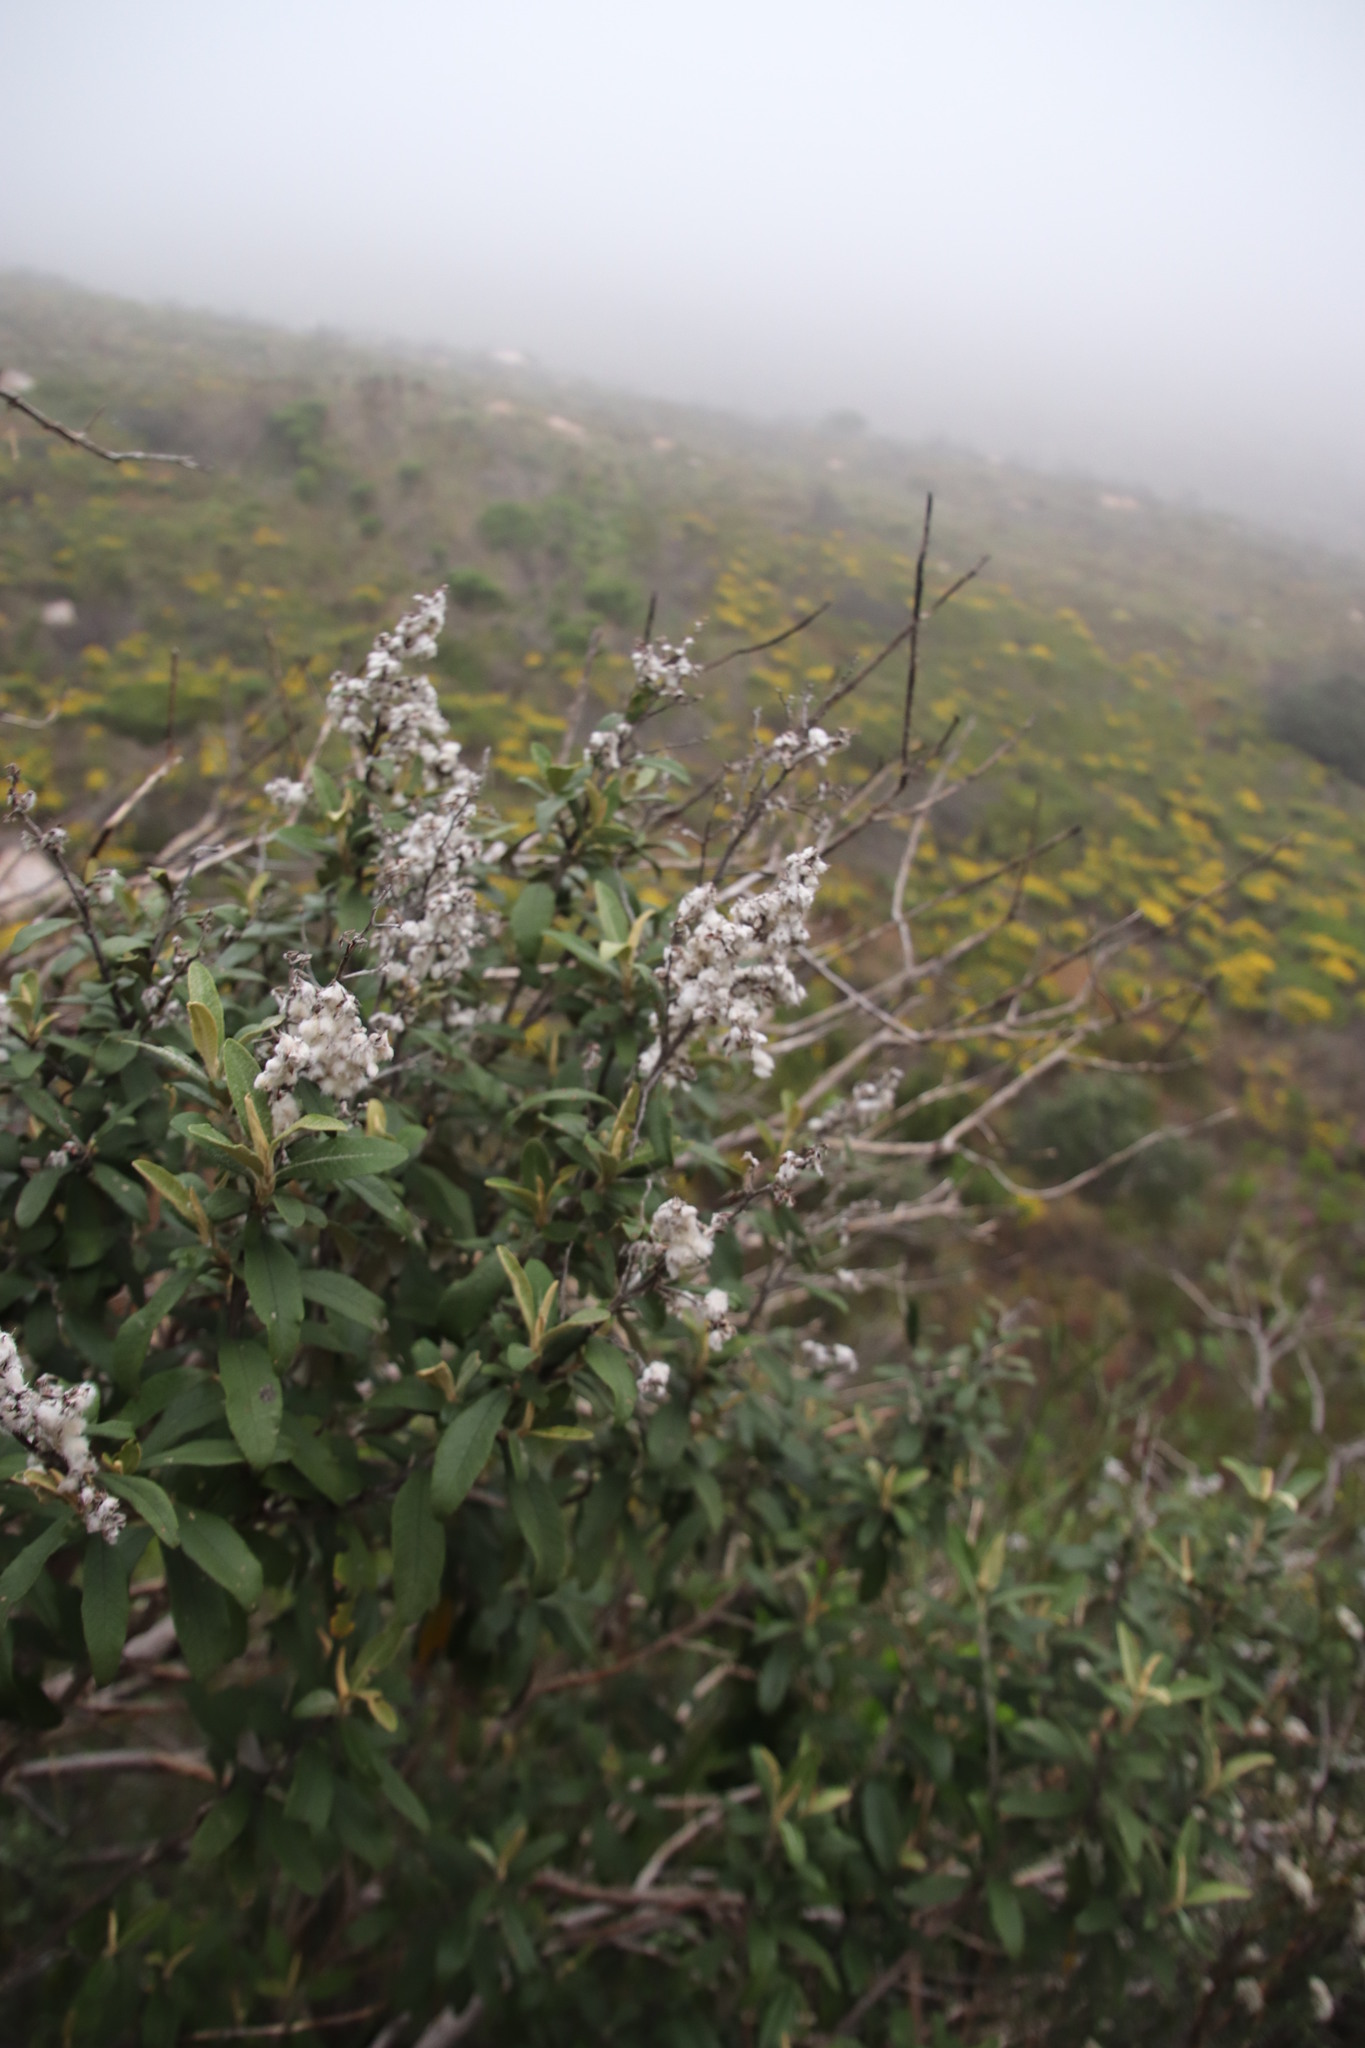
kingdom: Plantae
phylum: Tracheophyta
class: Magnoliopsida
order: Asterales
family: Asteraceae
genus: Tarchonanthus
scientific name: Tarchonanthus littoralis
